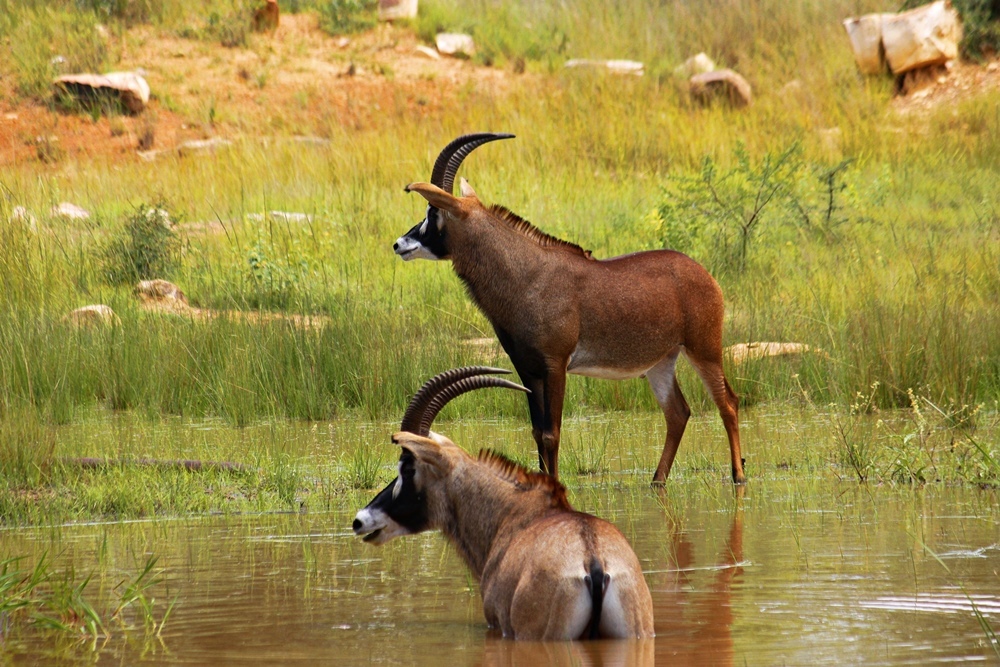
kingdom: Animalia
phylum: Chordata
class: Mammalia
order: Artiodactyla
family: Bovidae
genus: Hippotragus
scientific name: Hippotragus equinus
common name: Roan antelope
